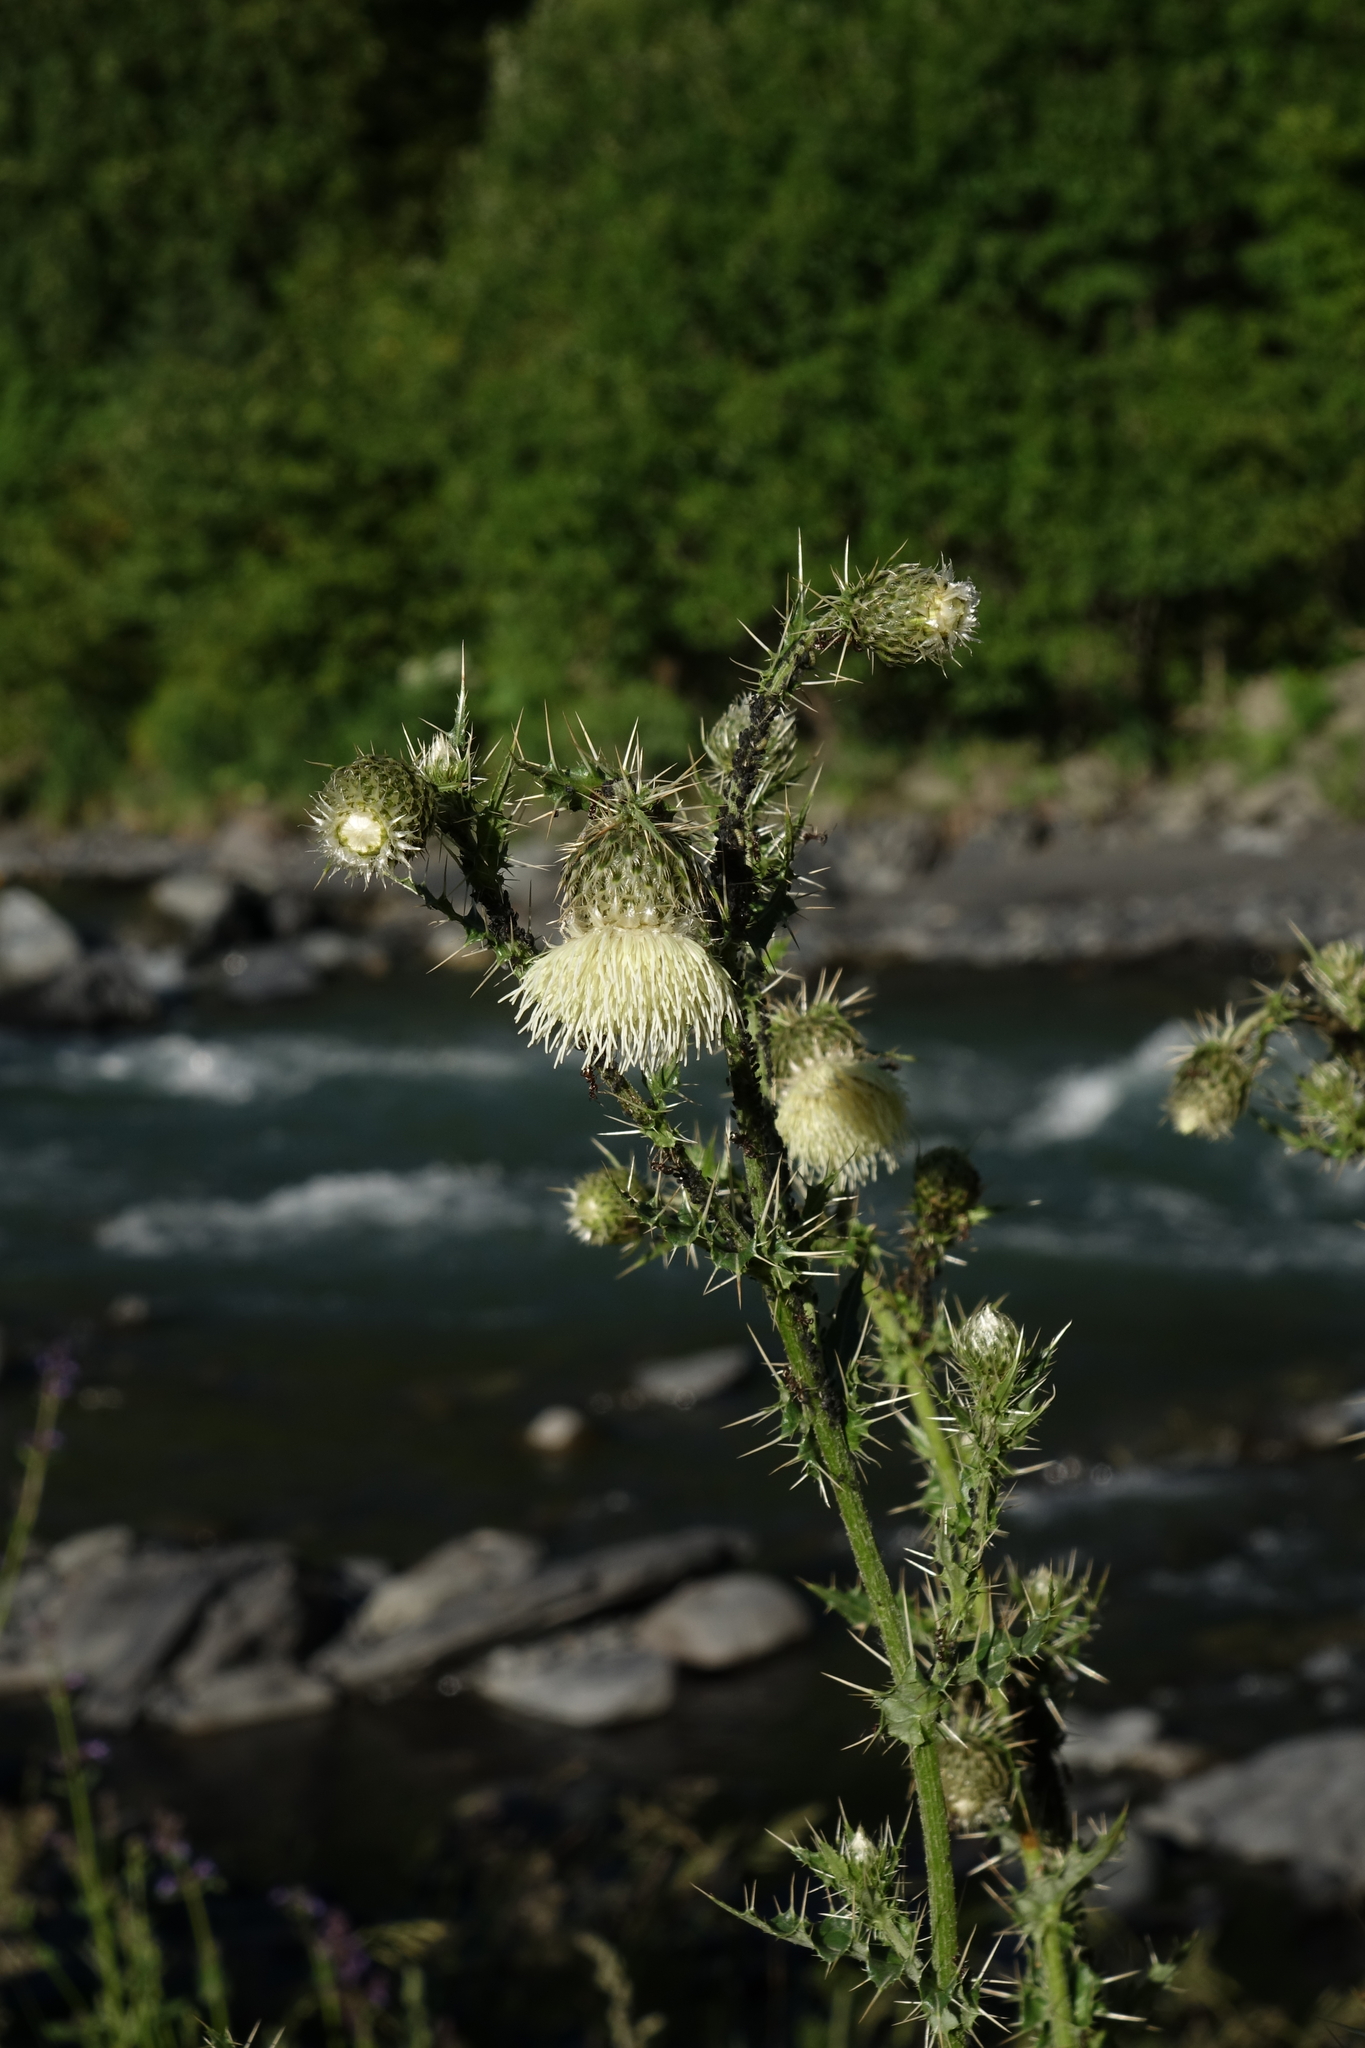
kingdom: Plantae
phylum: Tracheophyta
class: Magnoliopsida
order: Asterales
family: Asteraceae
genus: Cirsium
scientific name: Cirsium echinus
